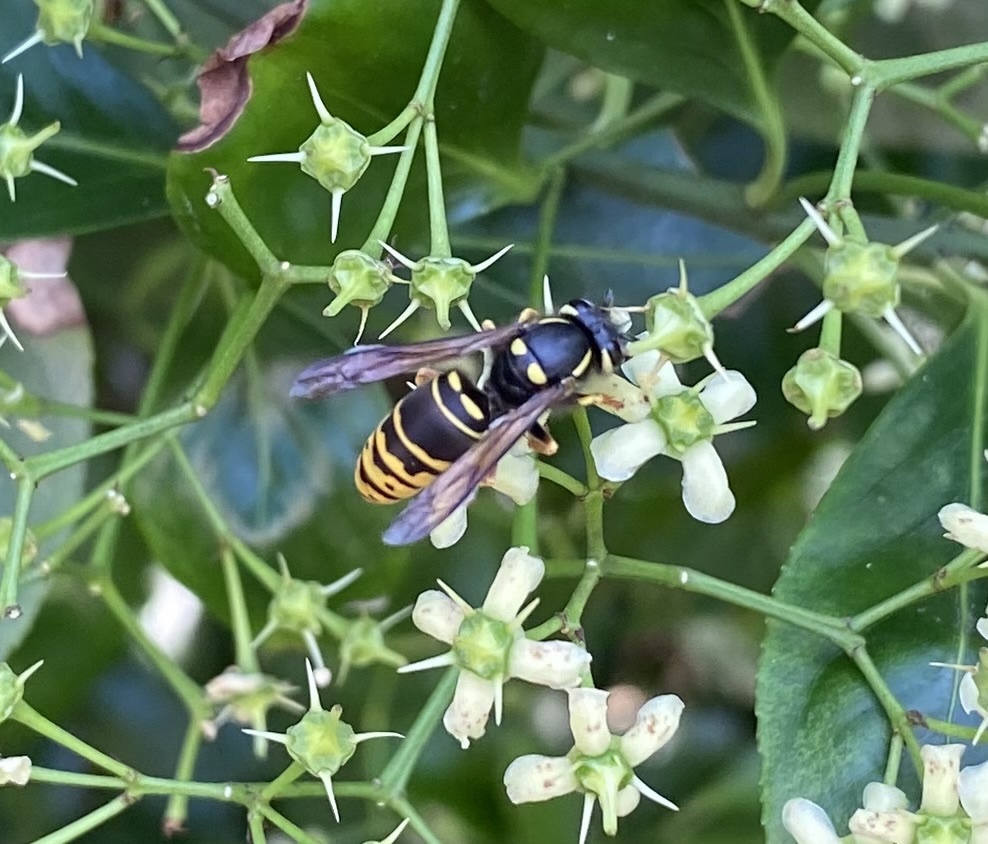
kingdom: Animalia
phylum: Arthropoda
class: Insecta
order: Hymenoptera
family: Vespidae
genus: Vespula
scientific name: Vespula vidua
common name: Widow yellowjacket
